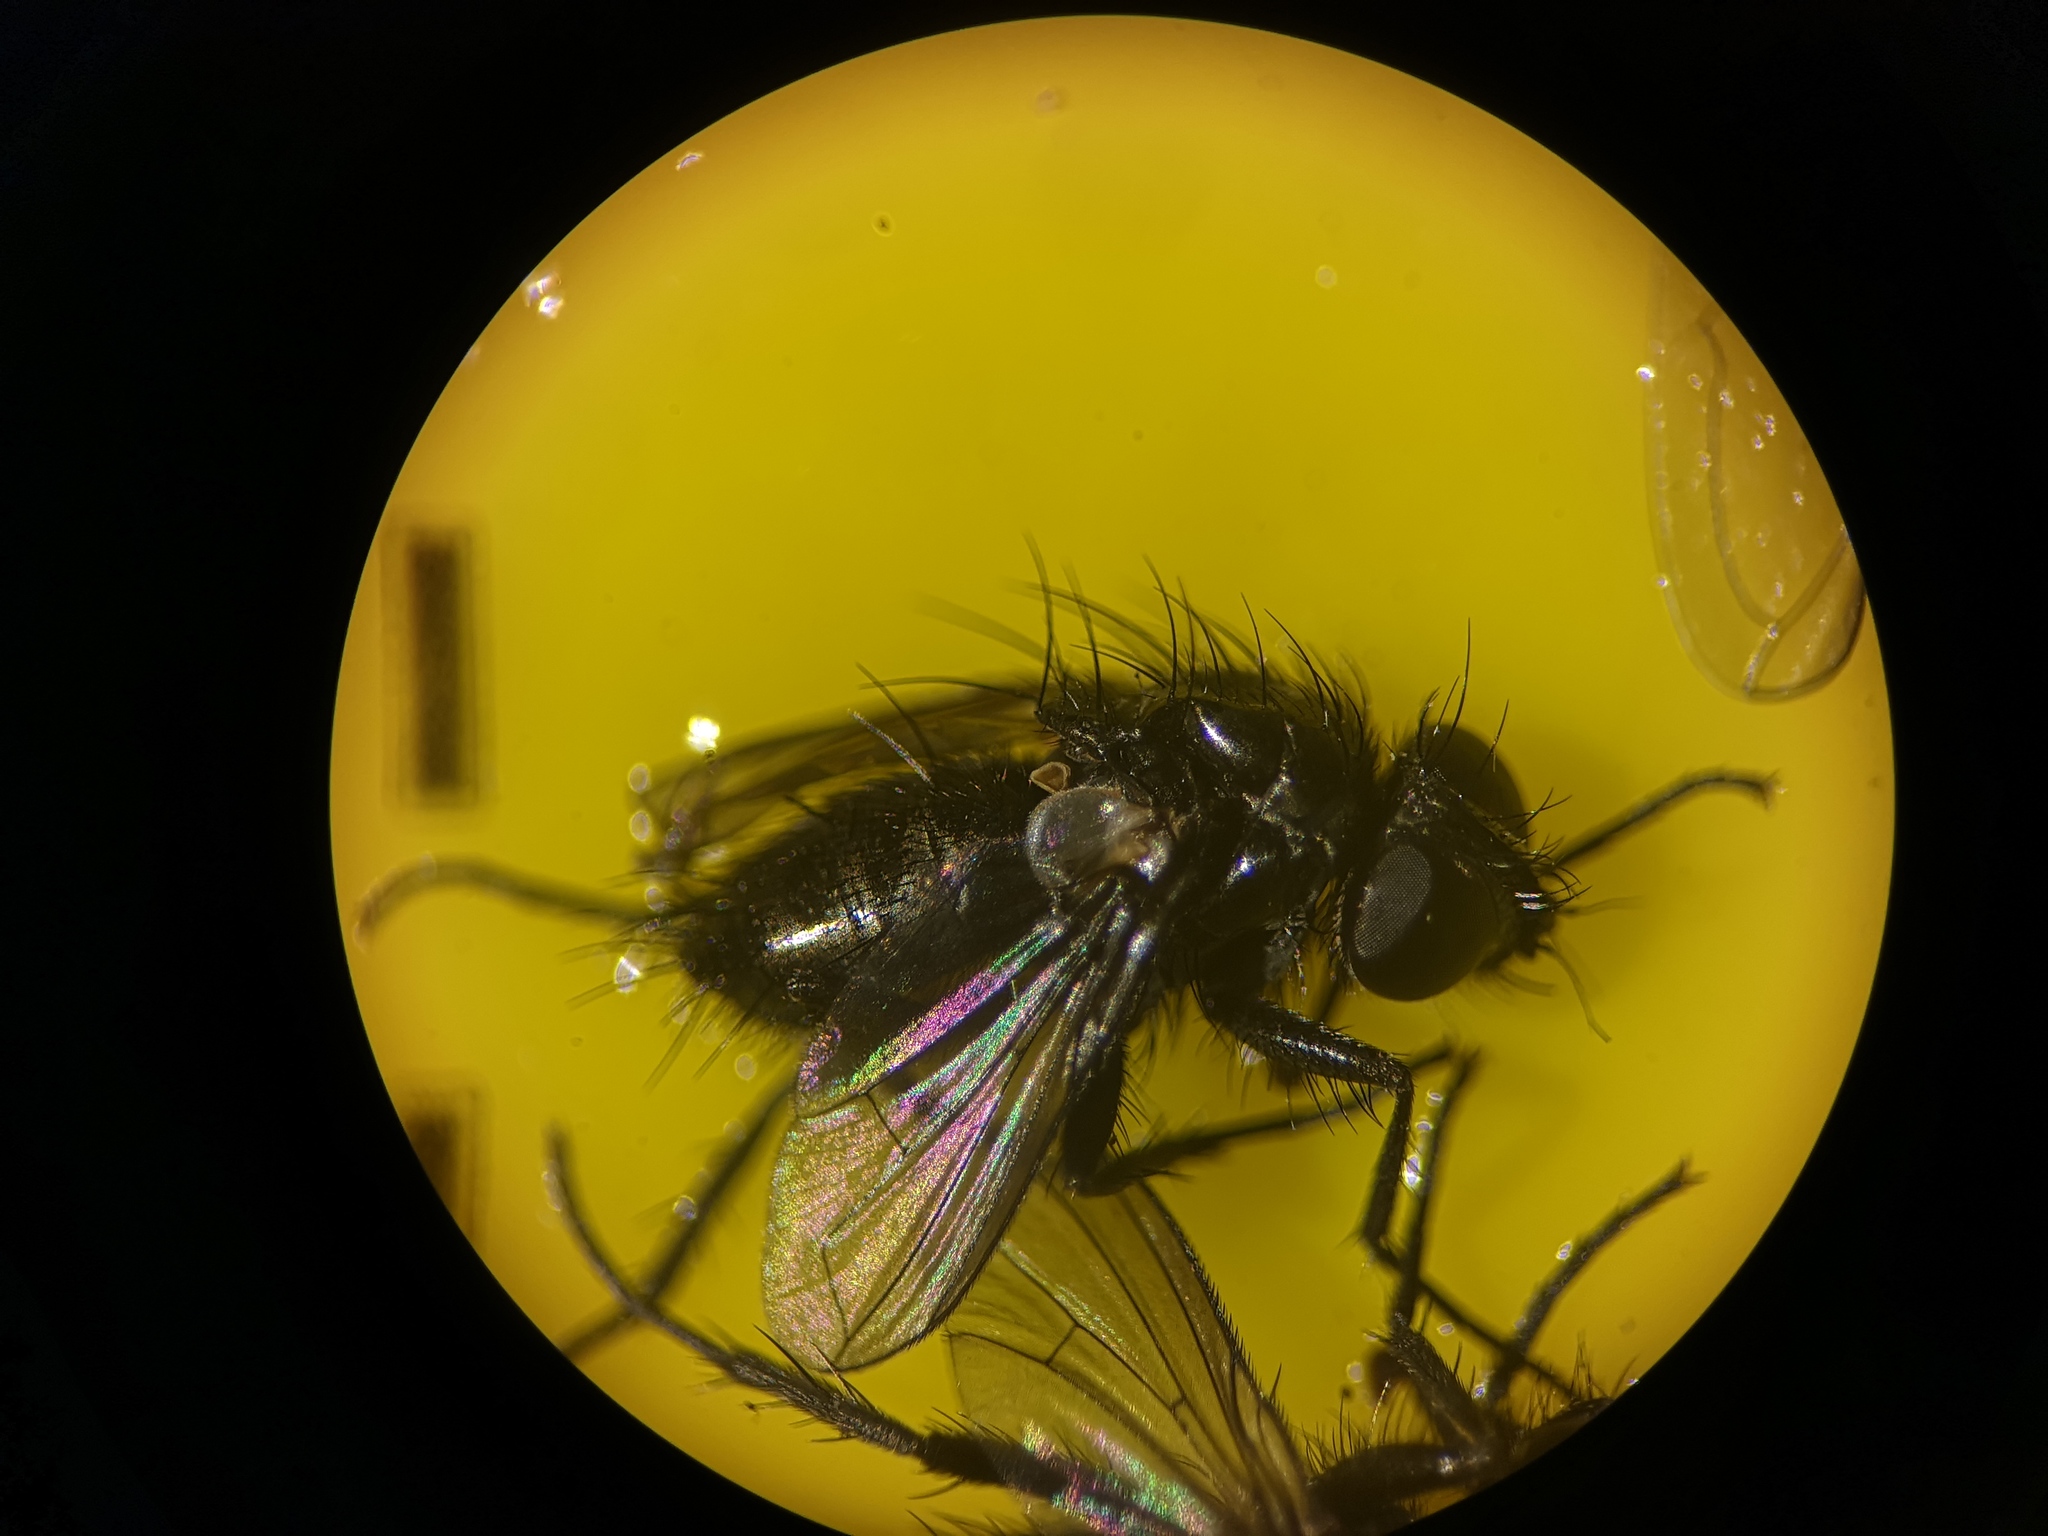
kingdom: Animalia
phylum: Arthropoda
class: Insecta
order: Diptera
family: Calliphoridae
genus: Rhinophora
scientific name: Rhinophora lepida
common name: Pouting woodlouse-fly
